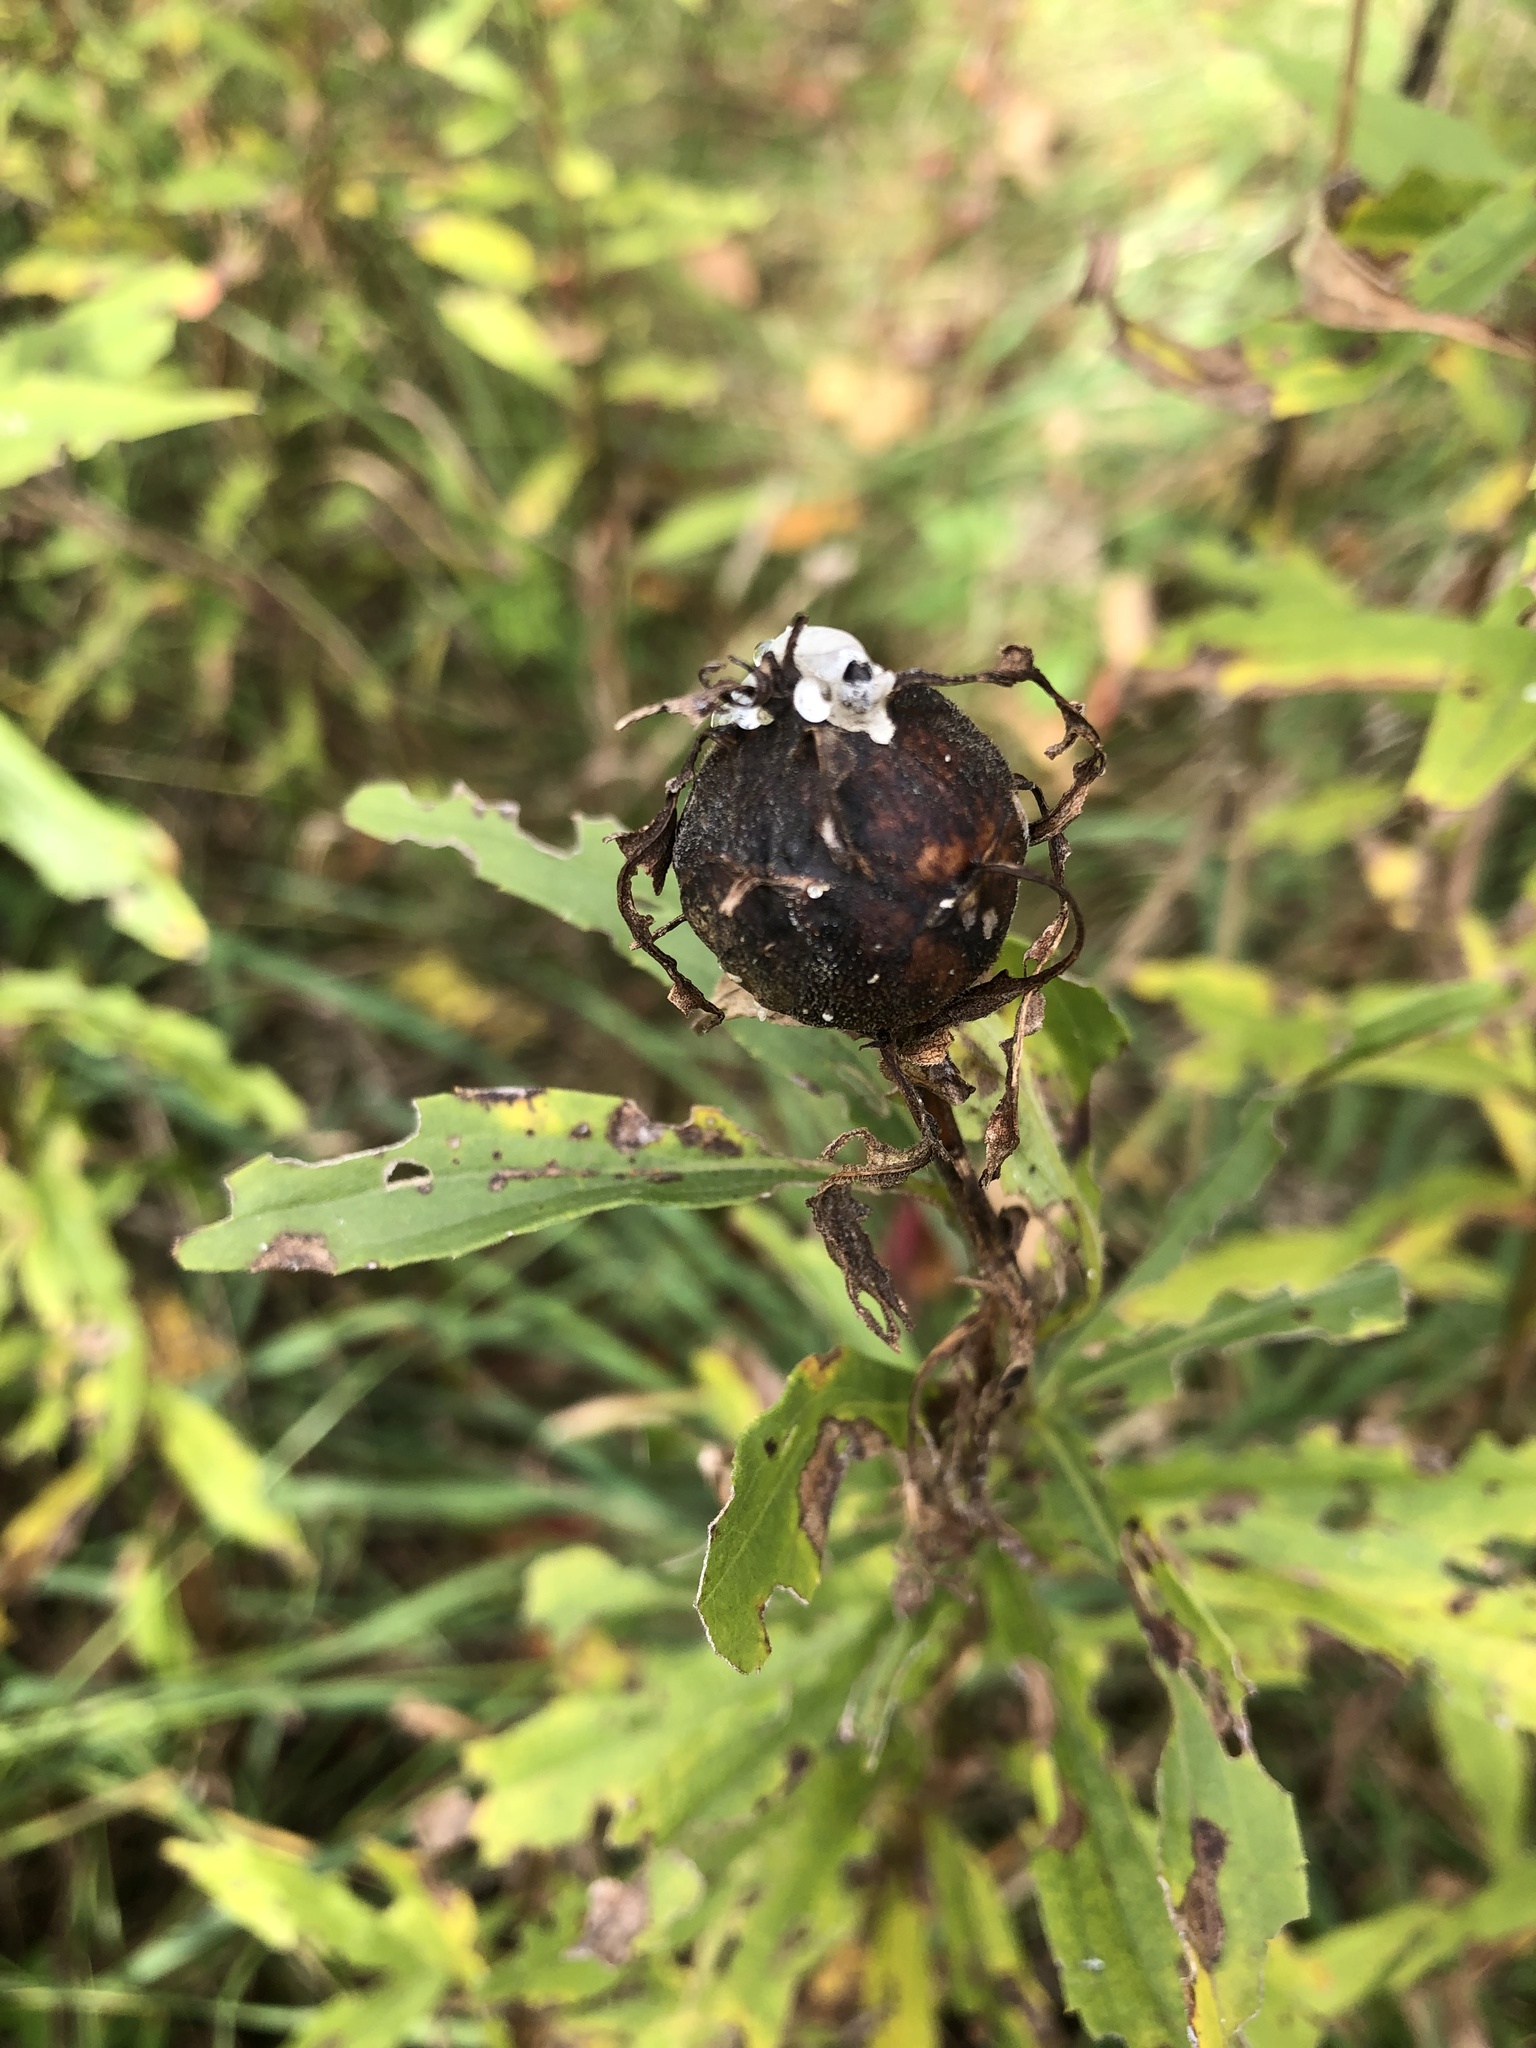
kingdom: Animalia
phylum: Arthropoda
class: Insecta
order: Diptera
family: Tephritidae
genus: Eurosta
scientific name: Eurosta solidaginis
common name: Goldenrod gall fly
